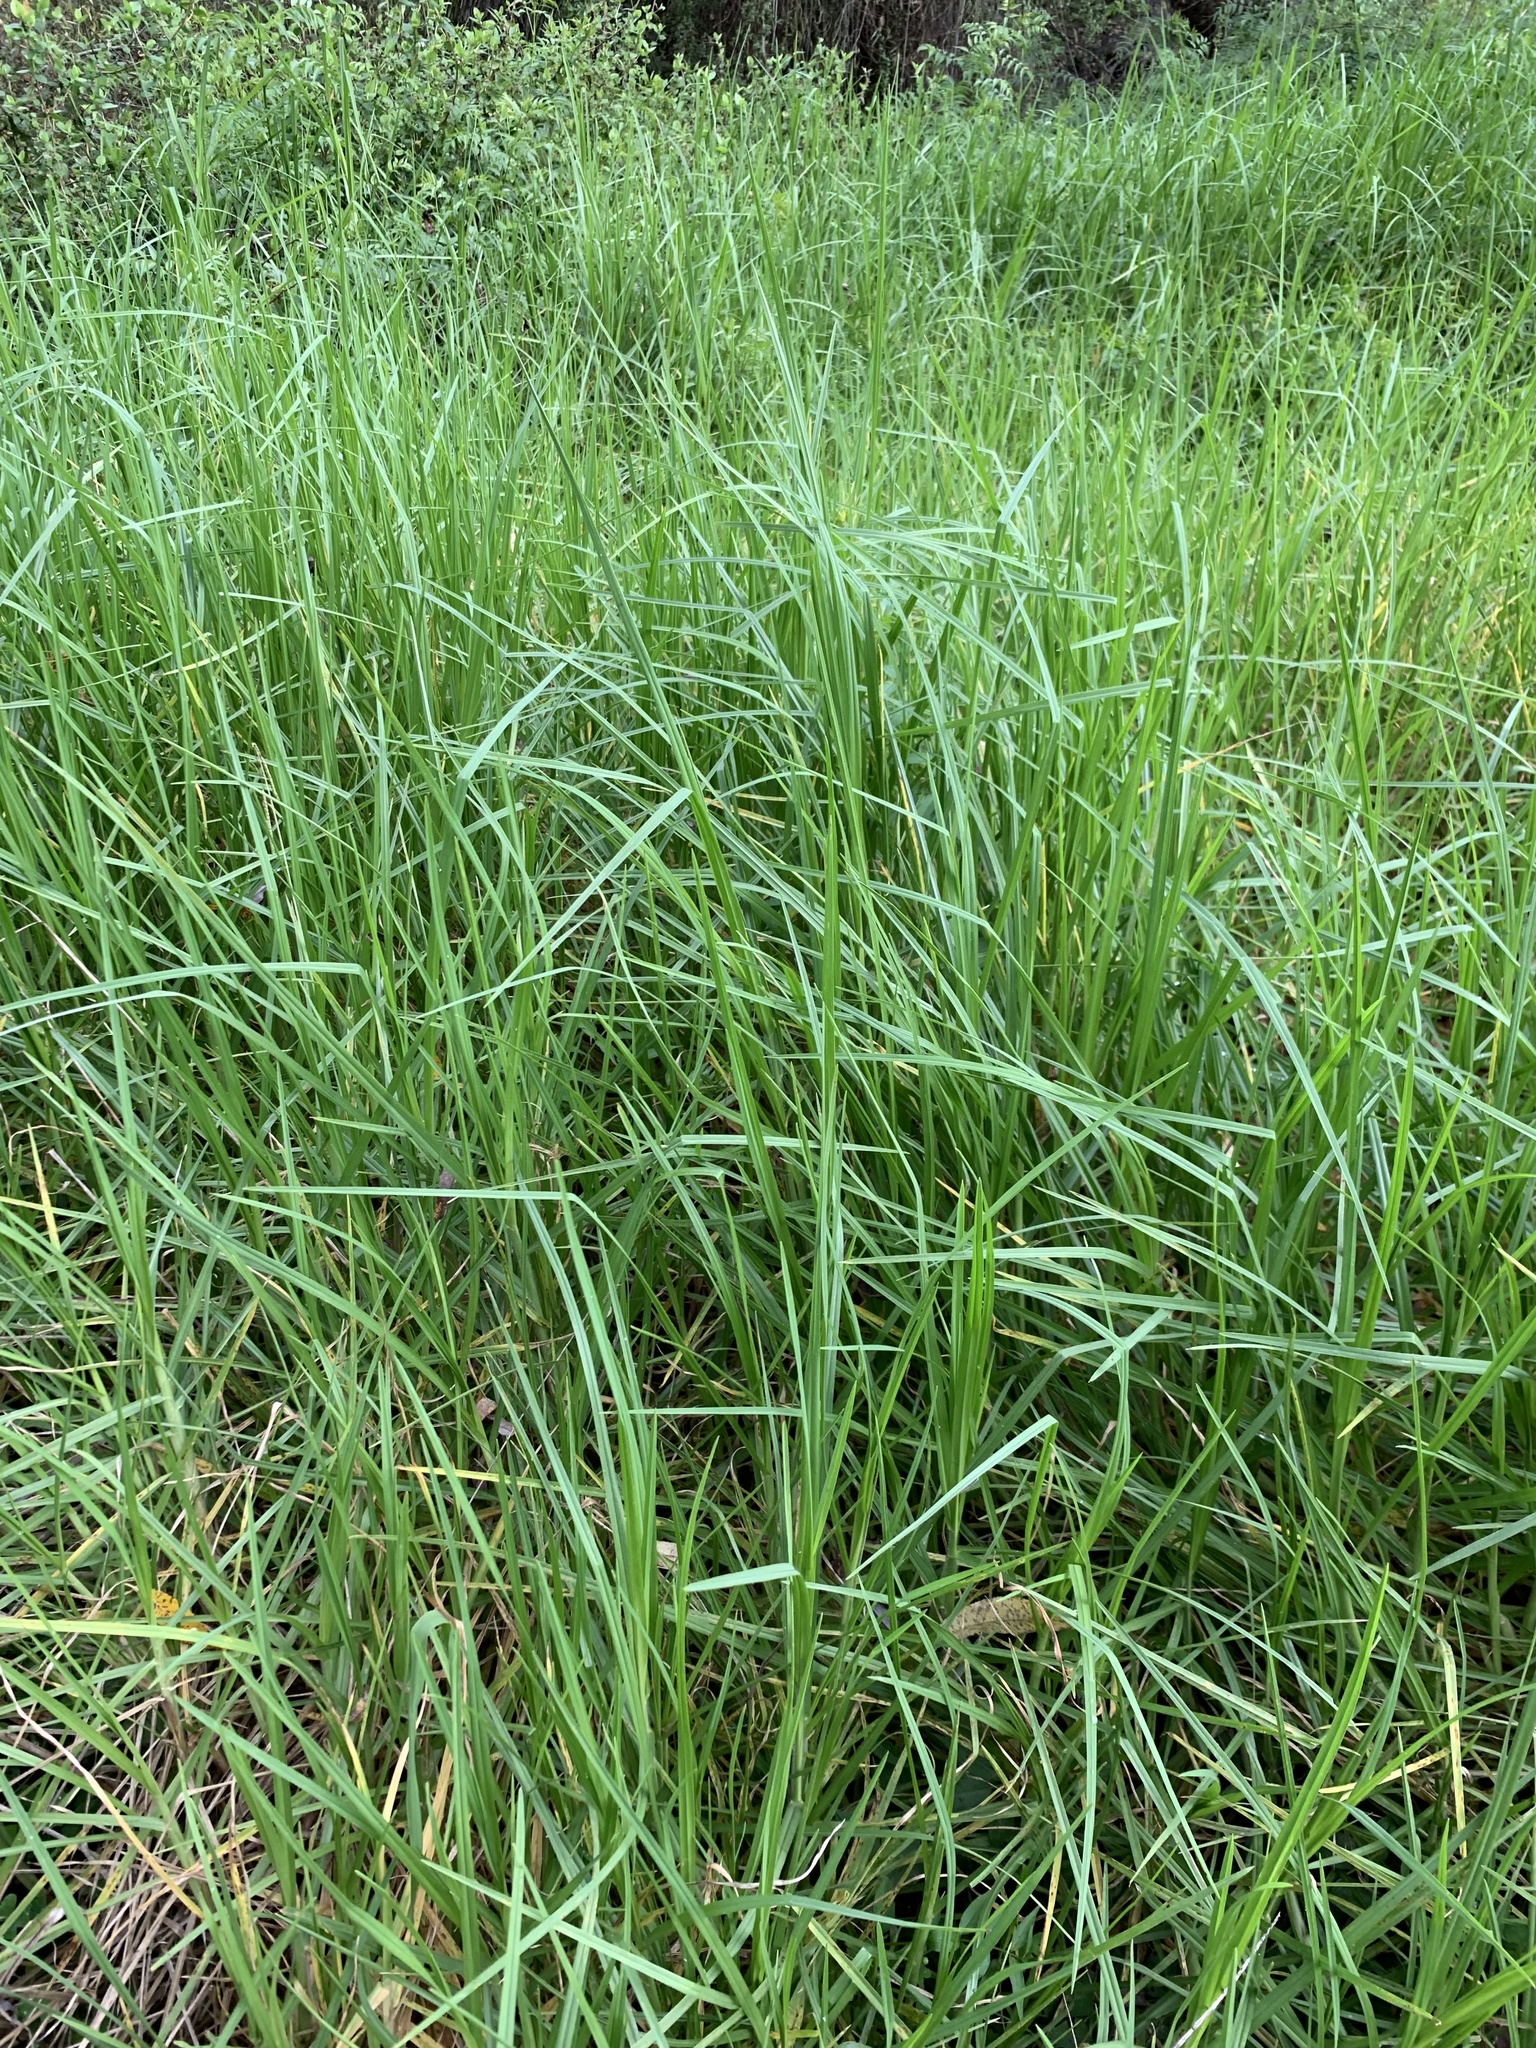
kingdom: Plantae
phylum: Tracheophyta
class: Liliopsida
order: Poales
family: Poaceae
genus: Cenchrus
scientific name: Cenchrus clandestinus
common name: Kikuyugrass
